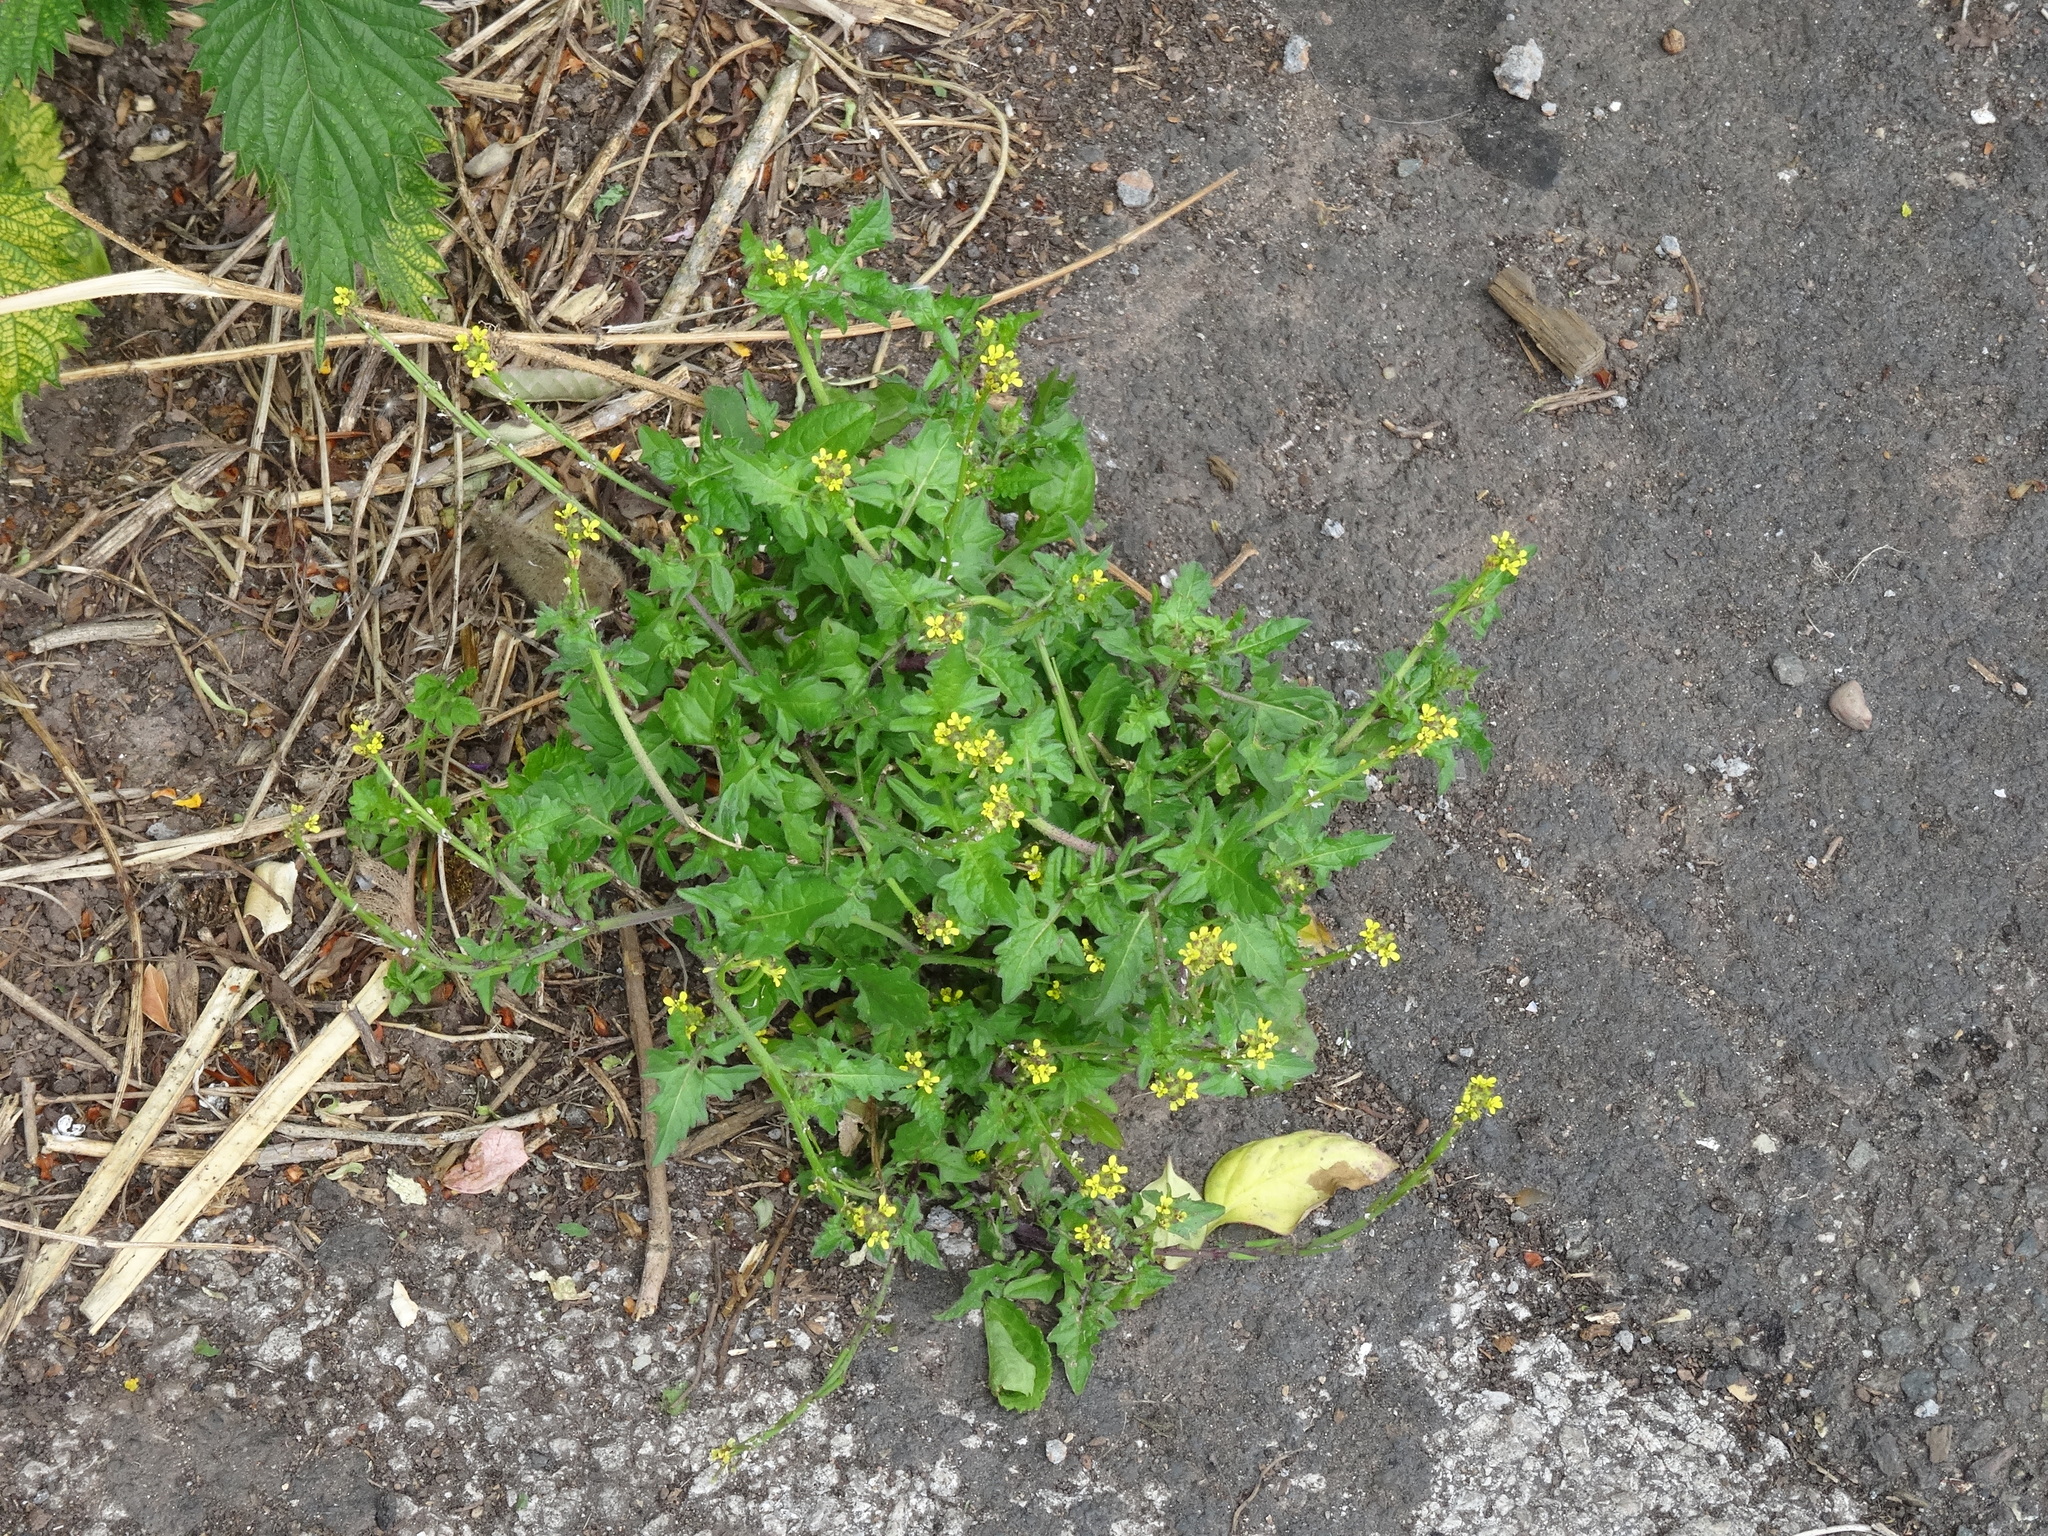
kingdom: Plantae
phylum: Tracheophyta
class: Magnoliopsida
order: Brassicales
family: Brassicaceae
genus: Sisymbrium
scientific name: Sisymbrium officinale
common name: Hedge mustard
